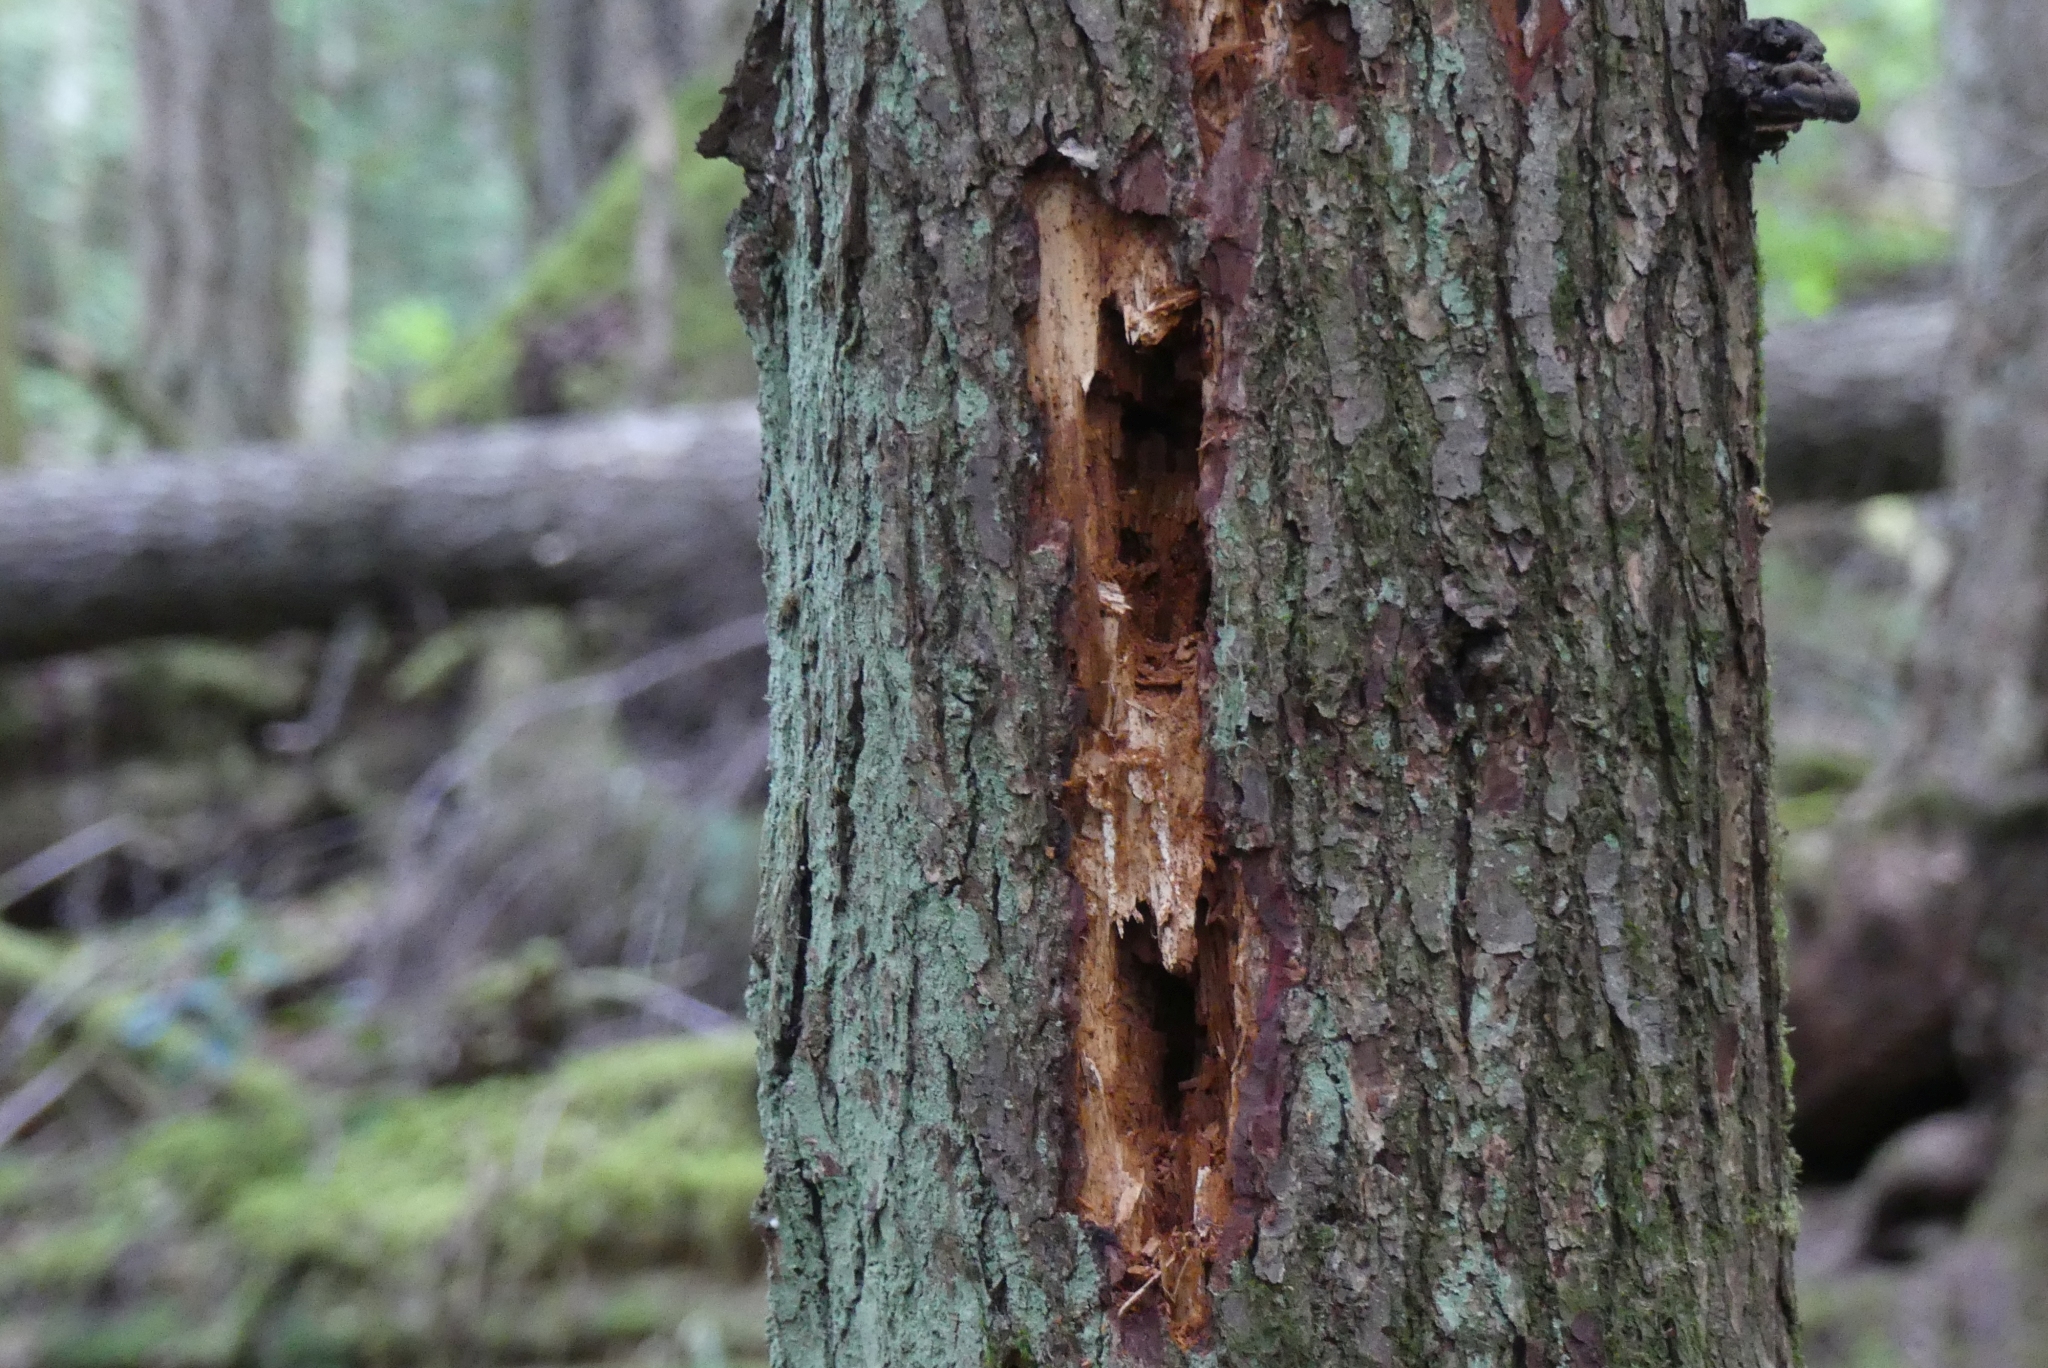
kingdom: Animalia
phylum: Chordata
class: Aves
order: Piciformes
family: Picidae
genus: Dryocopus
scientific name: Dryocopus pileatus
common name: Pileated woodpecker
